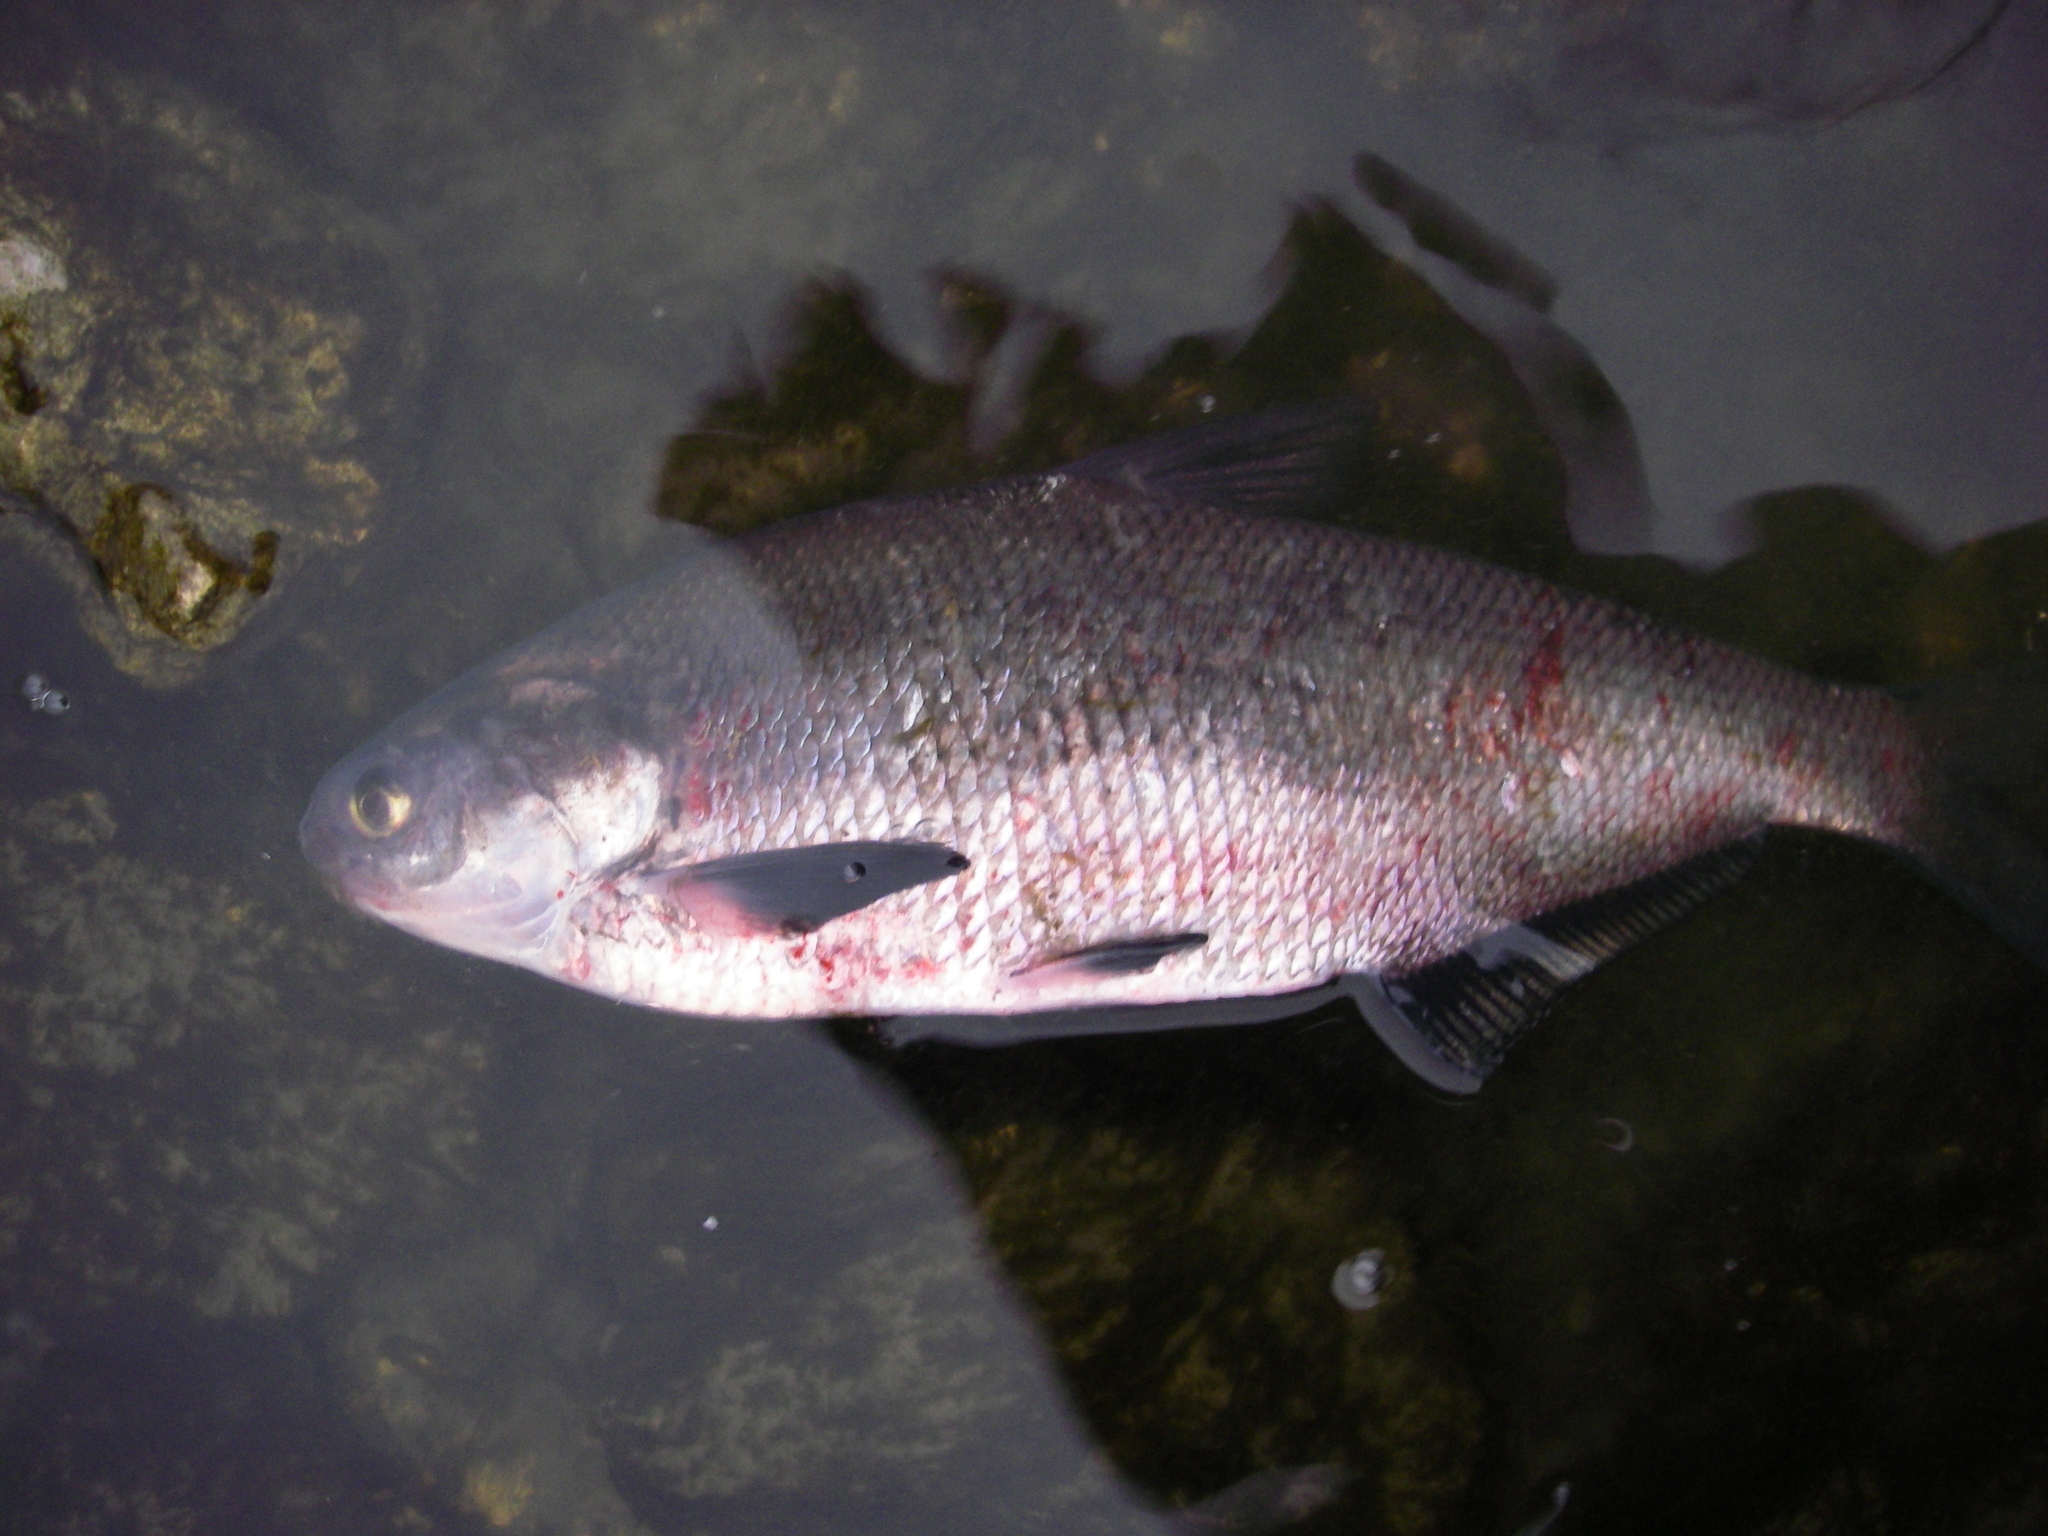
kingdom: Animalia
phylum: Chordata
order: Clupeiformes
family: Clupeidae
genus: Dorosoma
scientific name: Dorosoma cepedianum
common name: Gizzard shad
